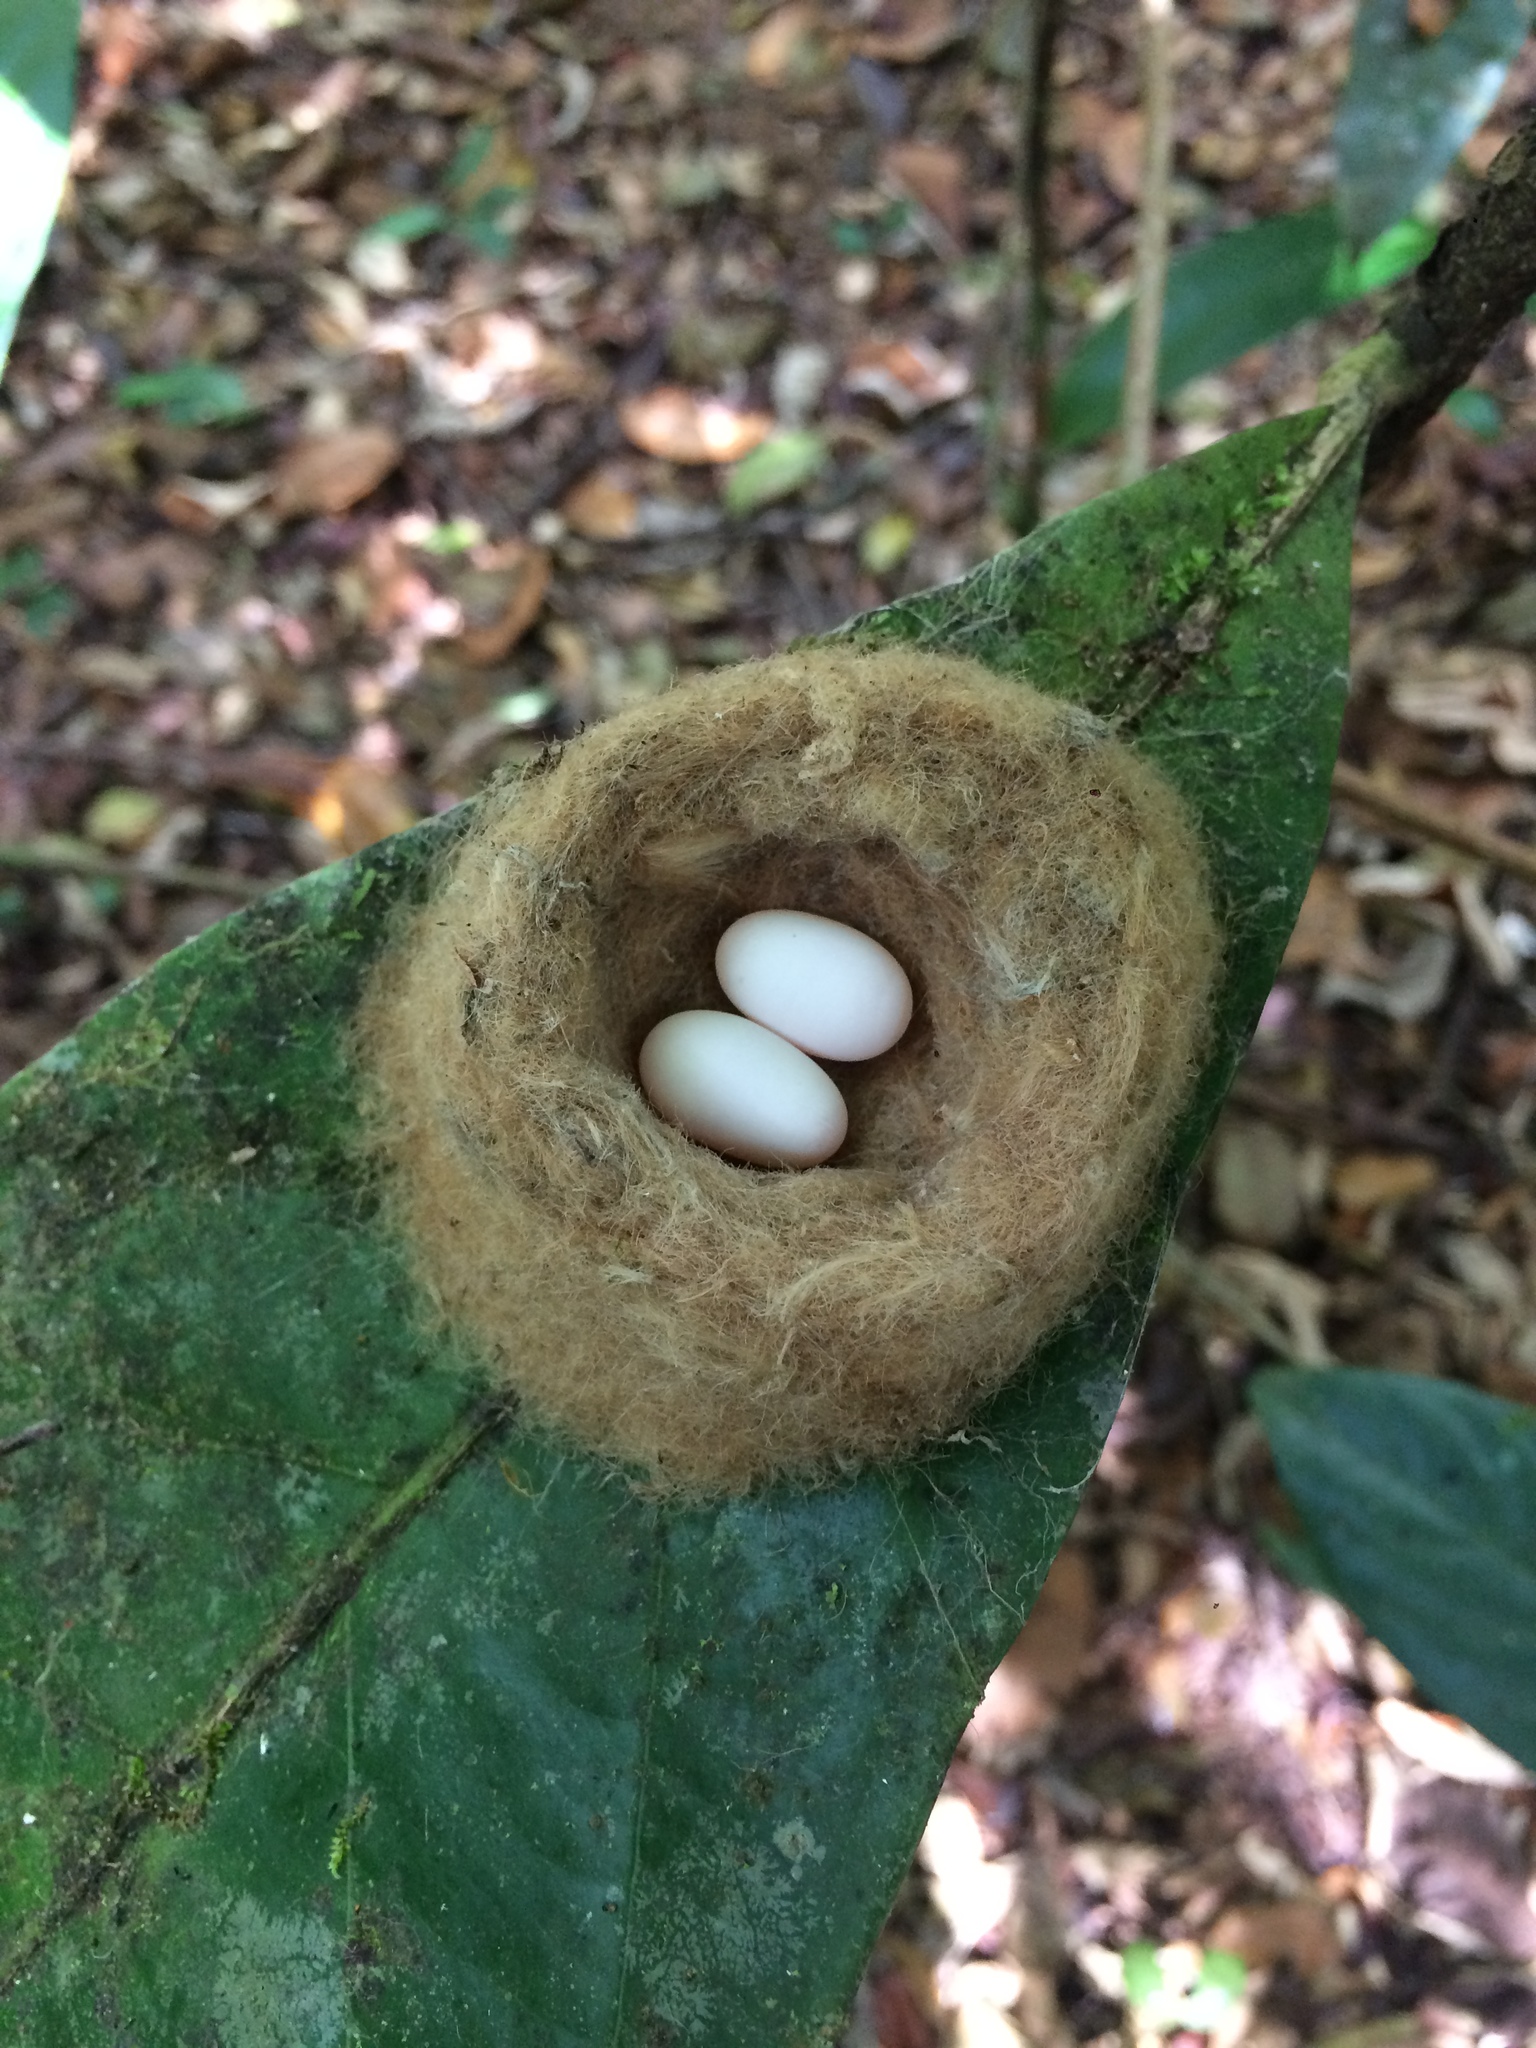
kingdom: Animalia
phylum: Chordata
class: Aves
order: Apodiformes
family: Trochilidae
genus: Florisuga
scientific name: Florisuga fusca
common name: Black jacobin
